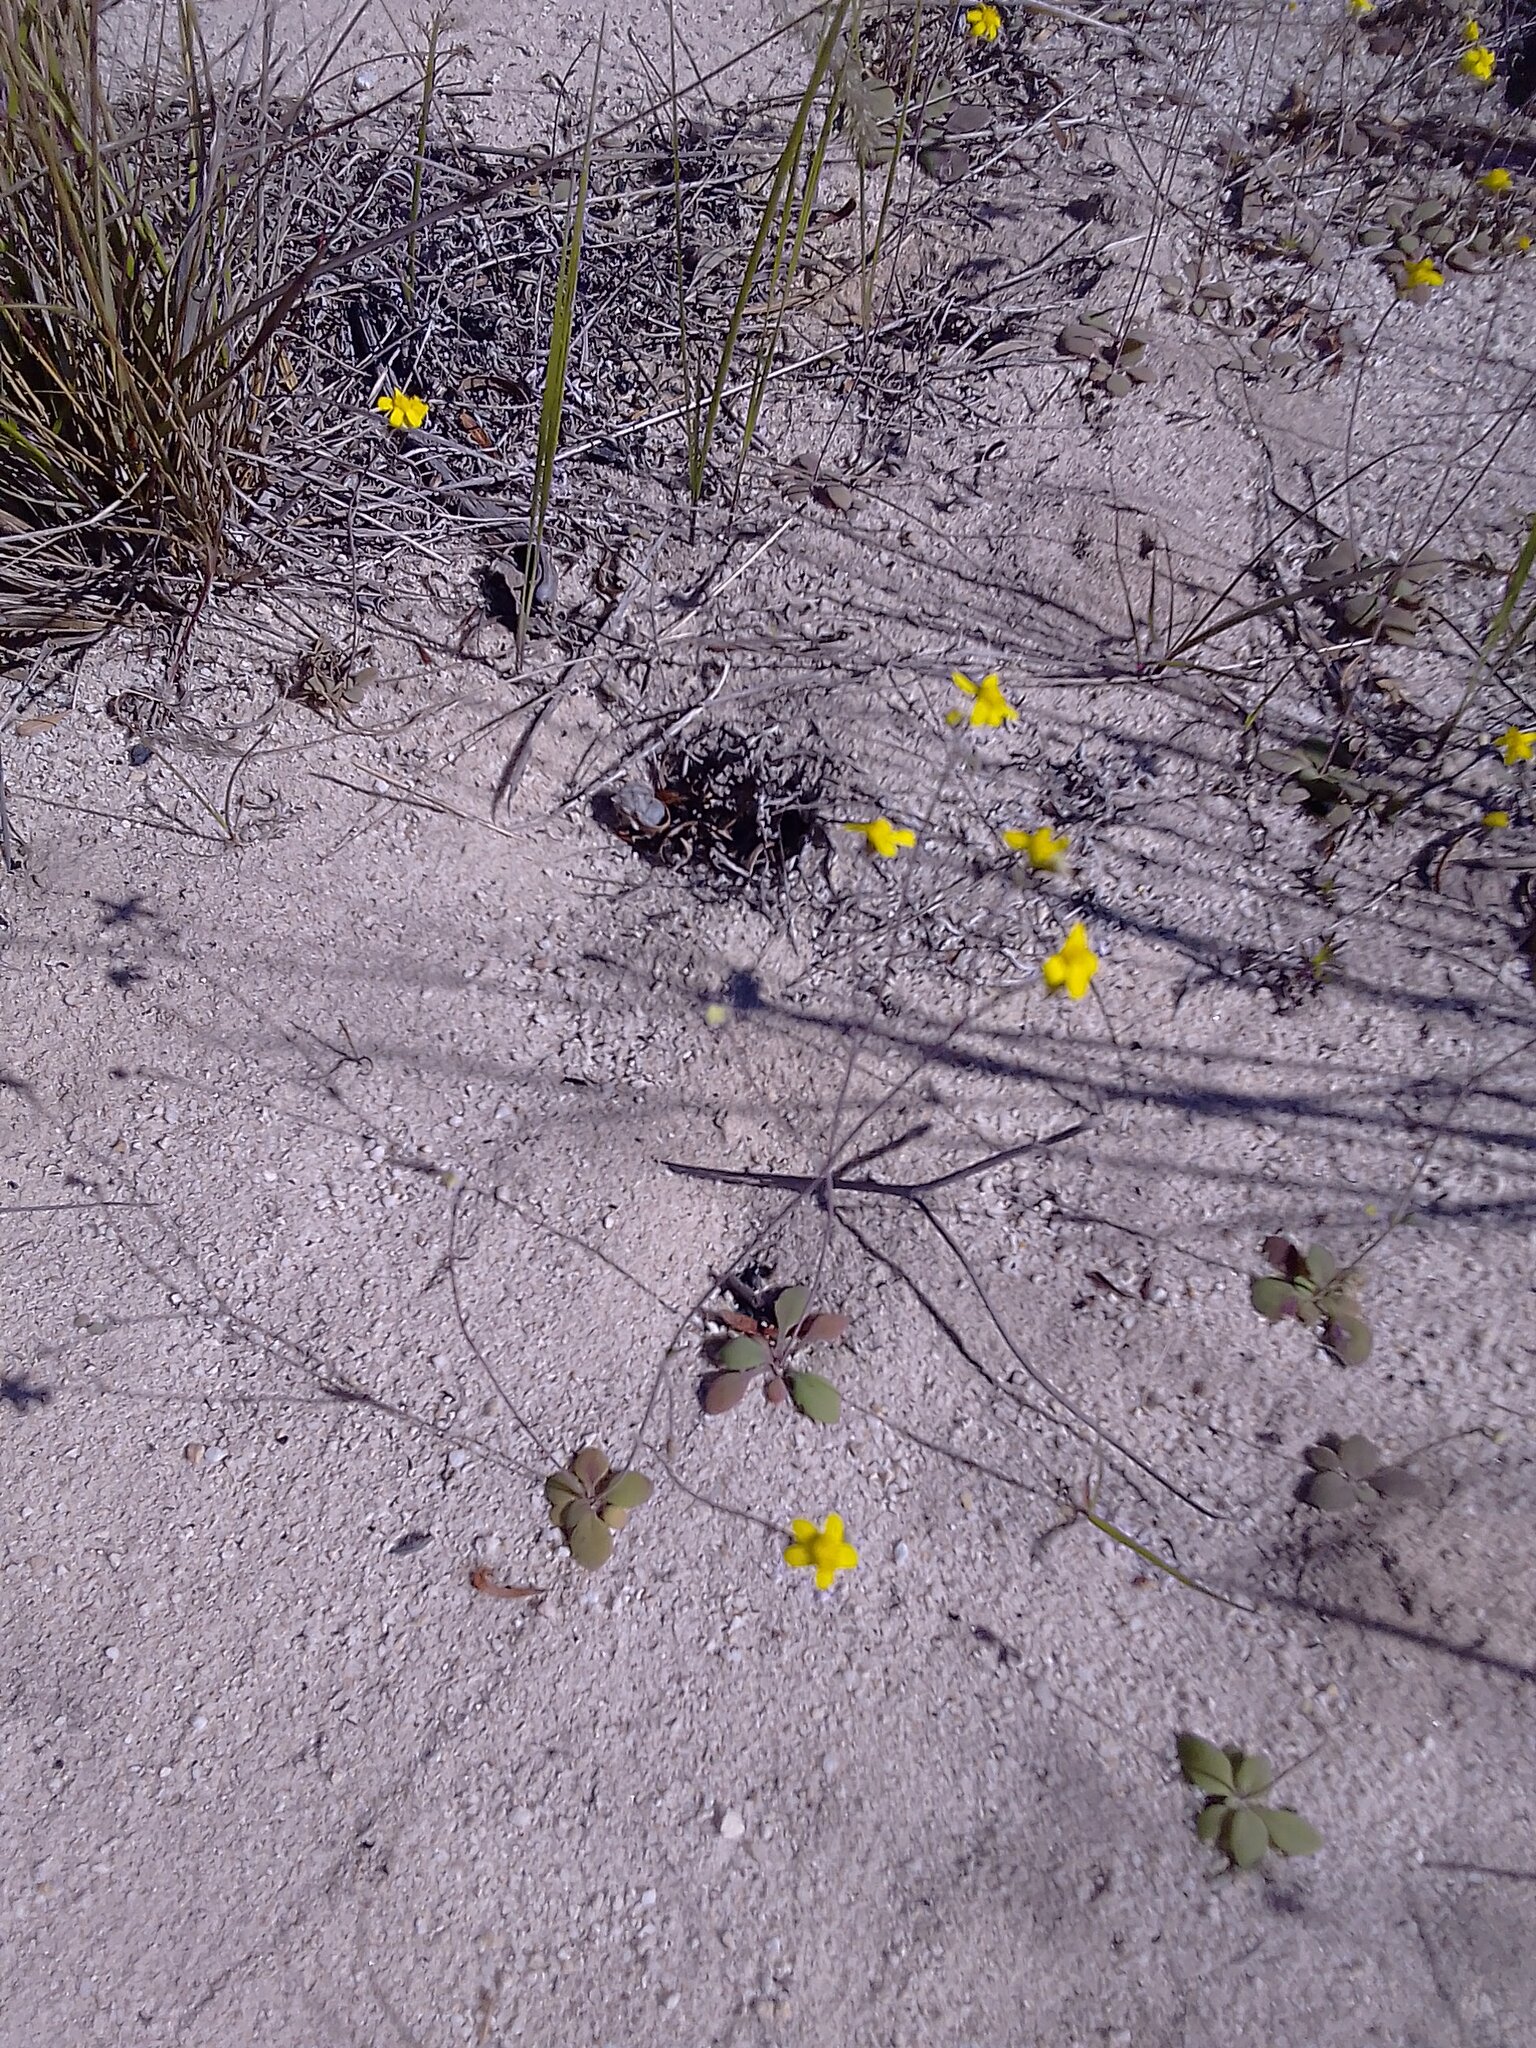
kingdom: Plantae
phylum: Tracheophyta
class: Magnoliopsida
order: Asterales
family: Asteraceae
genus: Gymnodiscus
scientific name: Gymnodiscus capillaris
